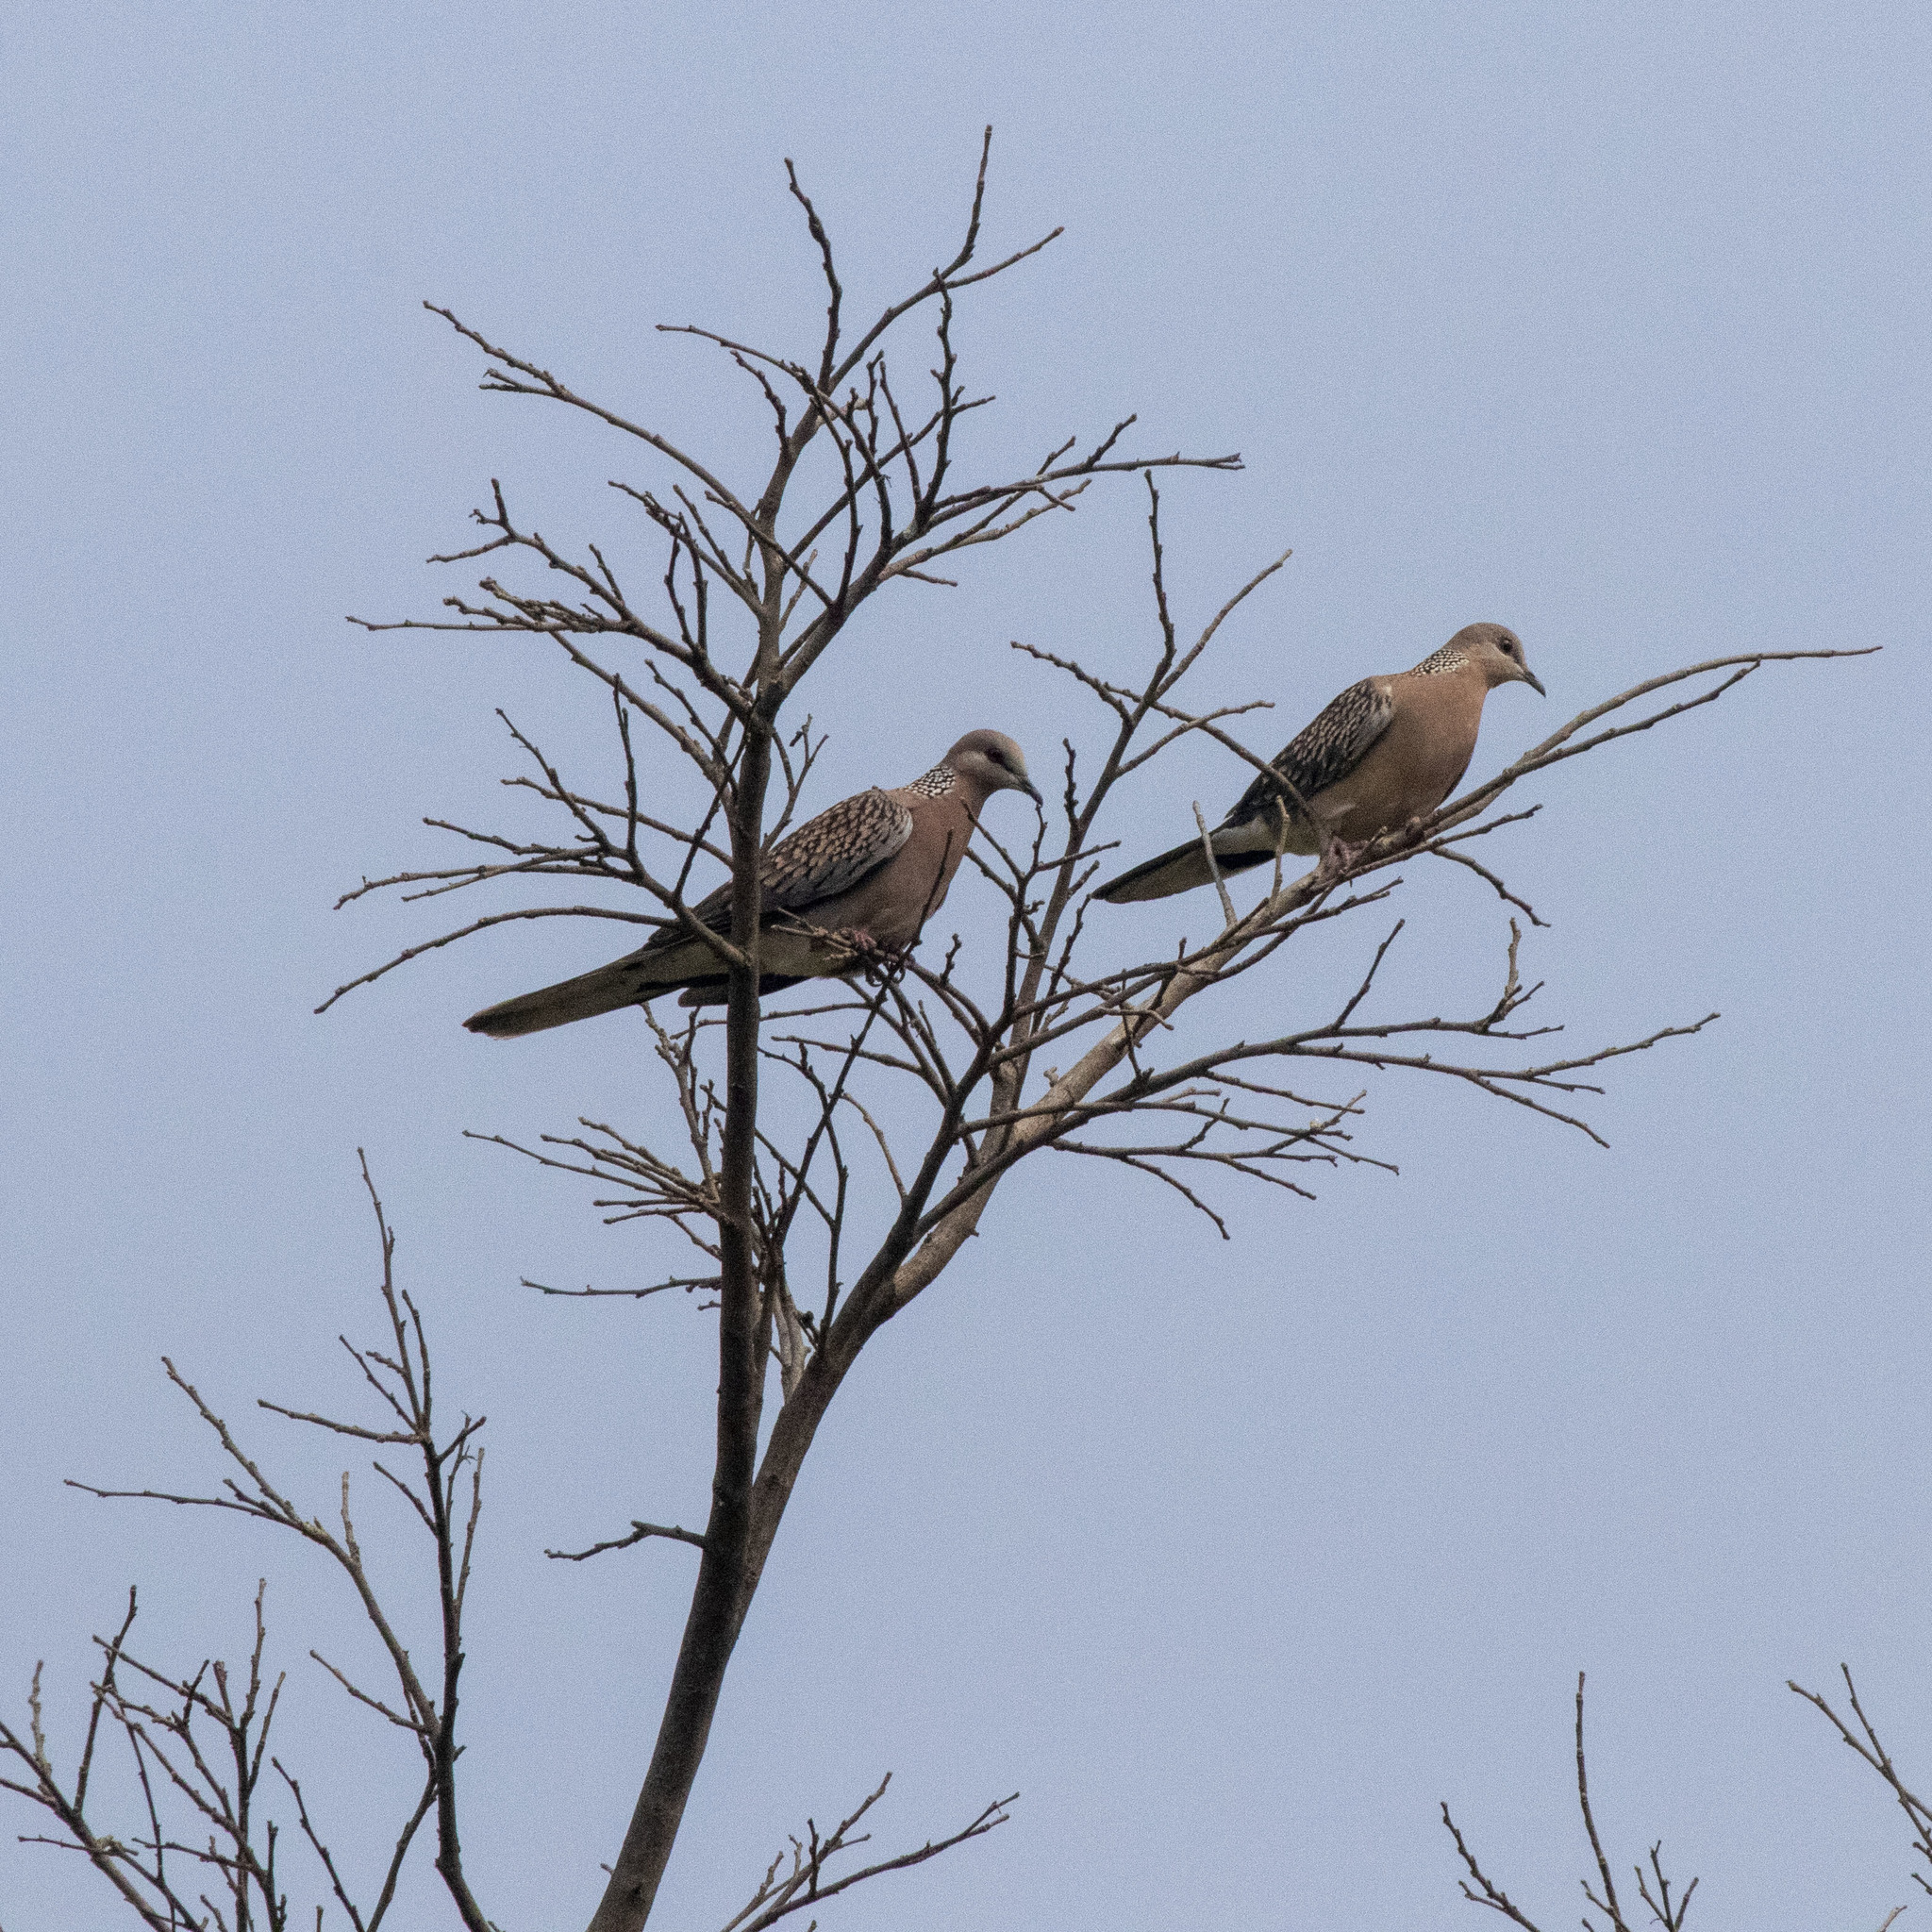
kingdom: Animalia
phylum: Chordata
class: Aves
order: Columbiformes
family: Columbidae
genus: Spilopelia
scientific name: Spilopelia chinensis
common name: Spotted dove
